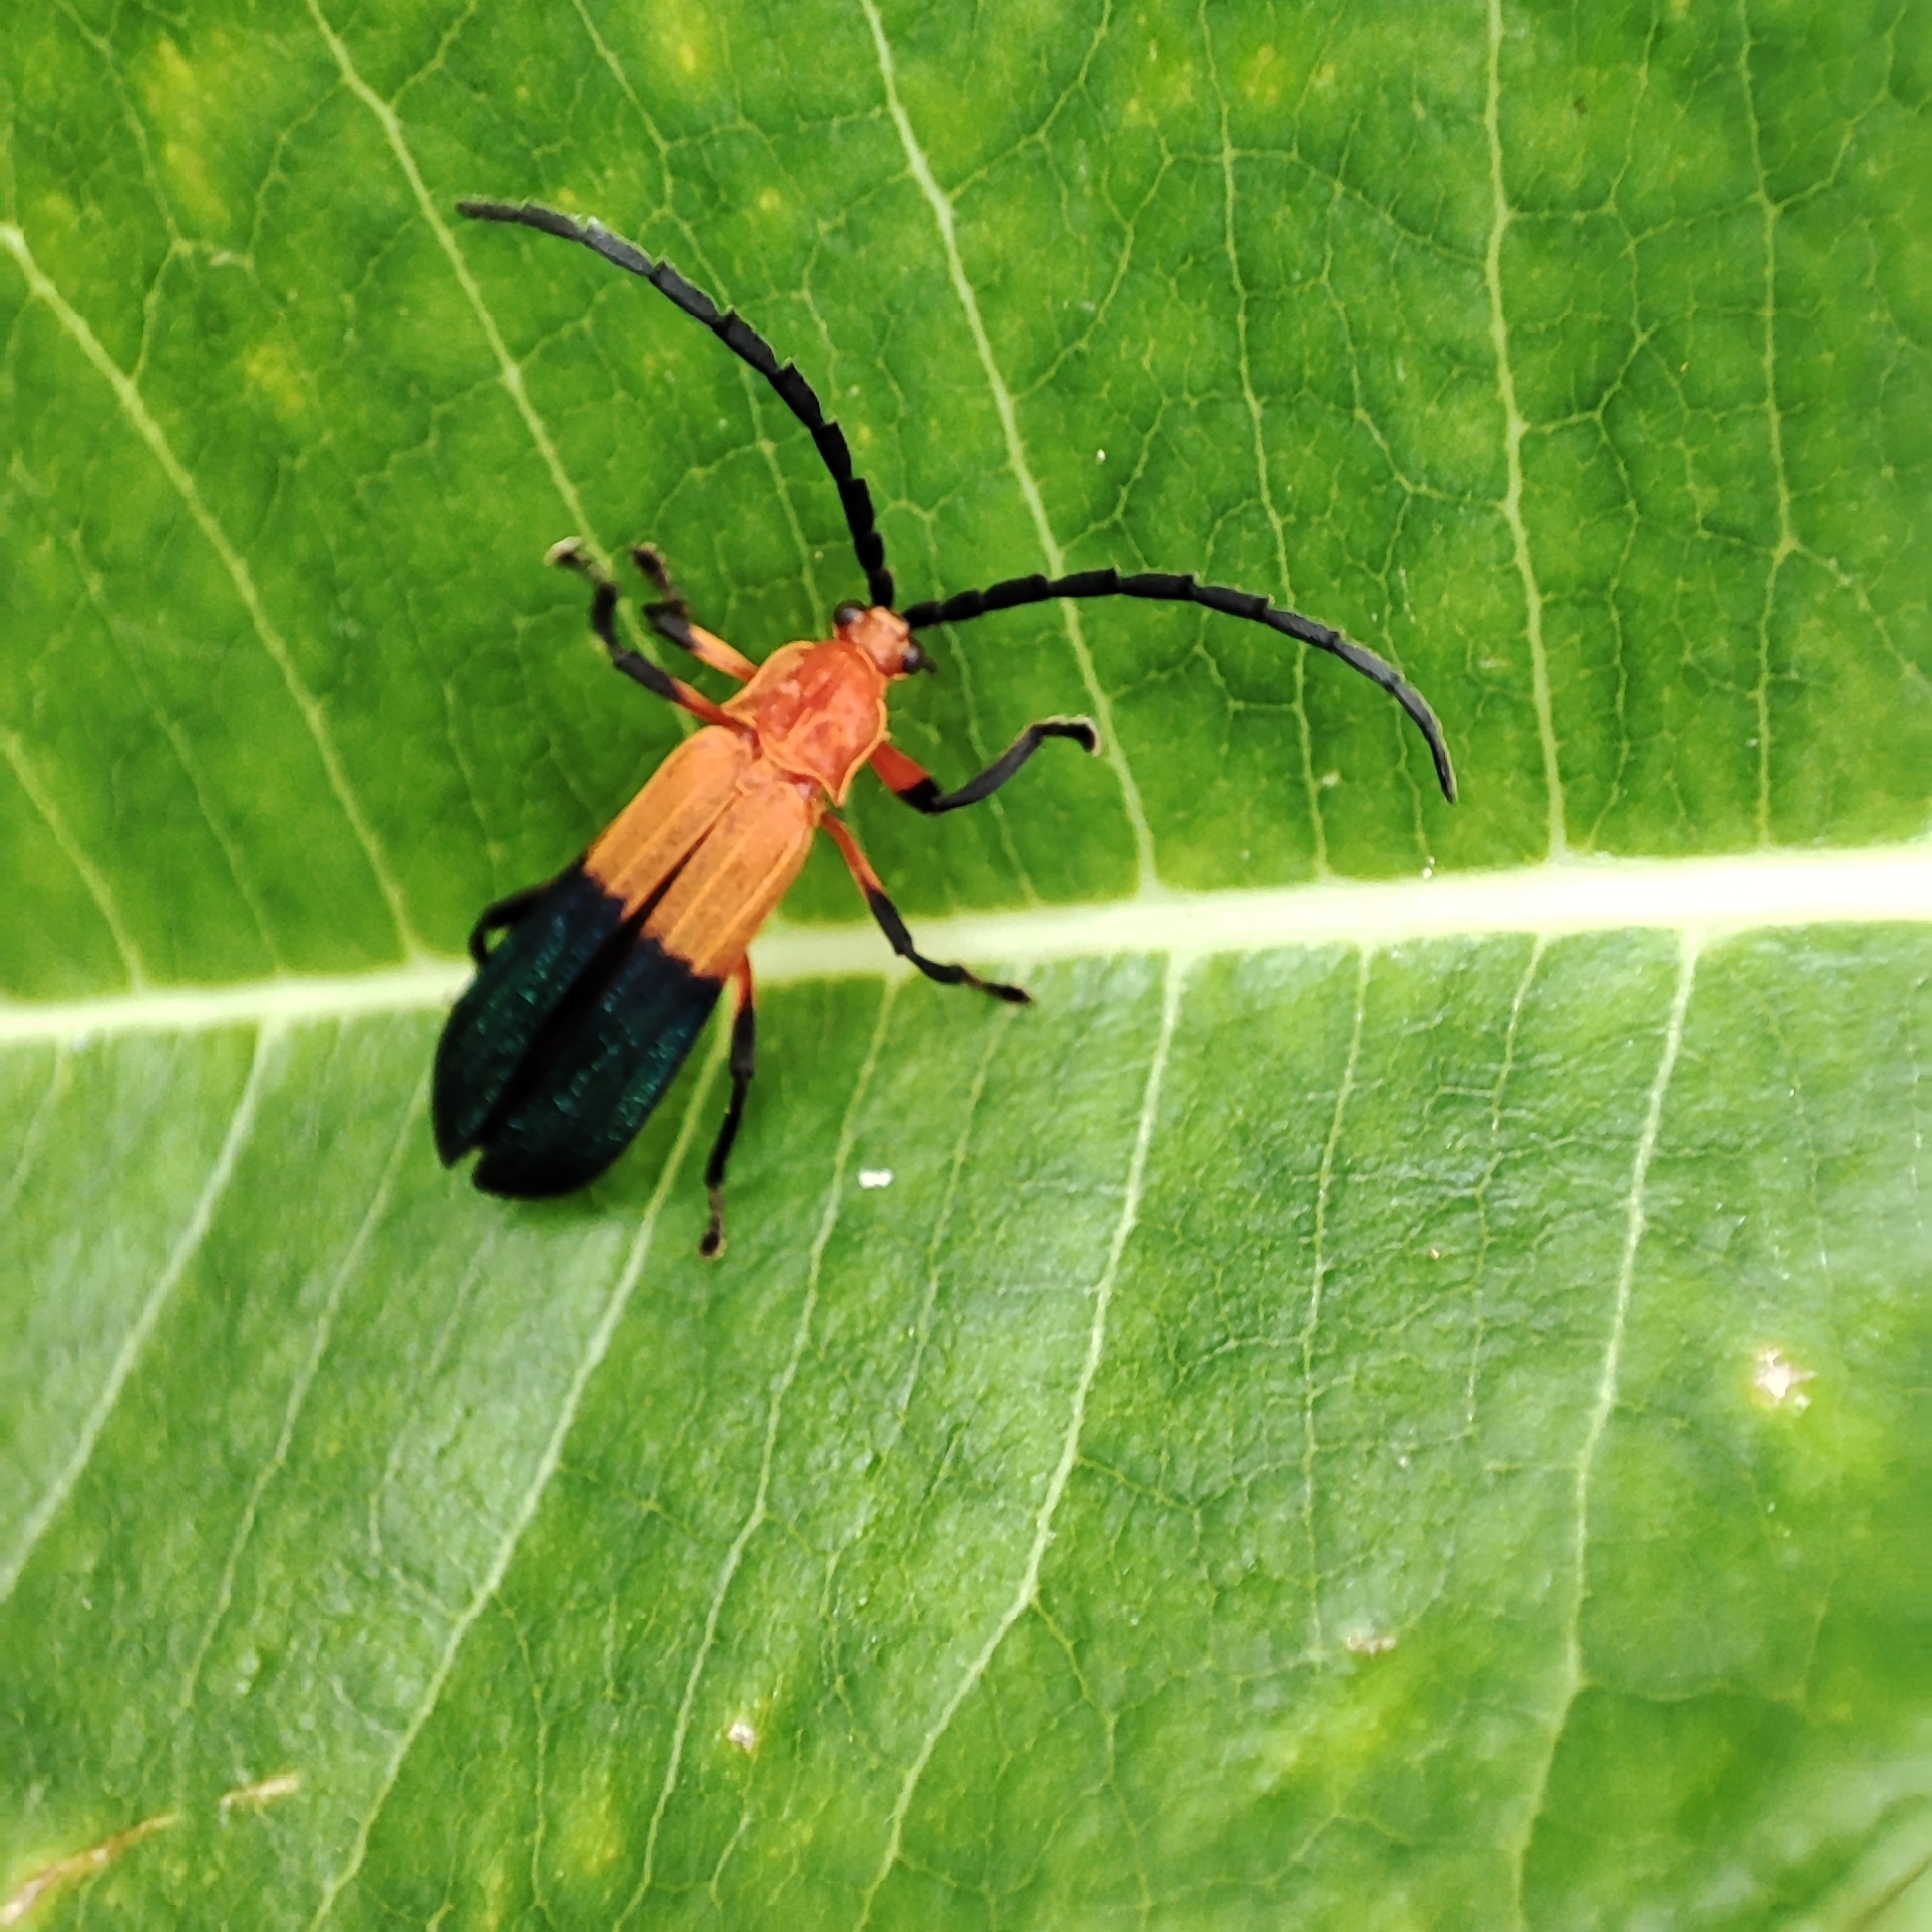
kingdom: Animalia
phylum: Arthropoda
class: Insecta
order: Coleoptera
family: Lycidae
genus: Thonalmus
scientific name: Thonalmus
